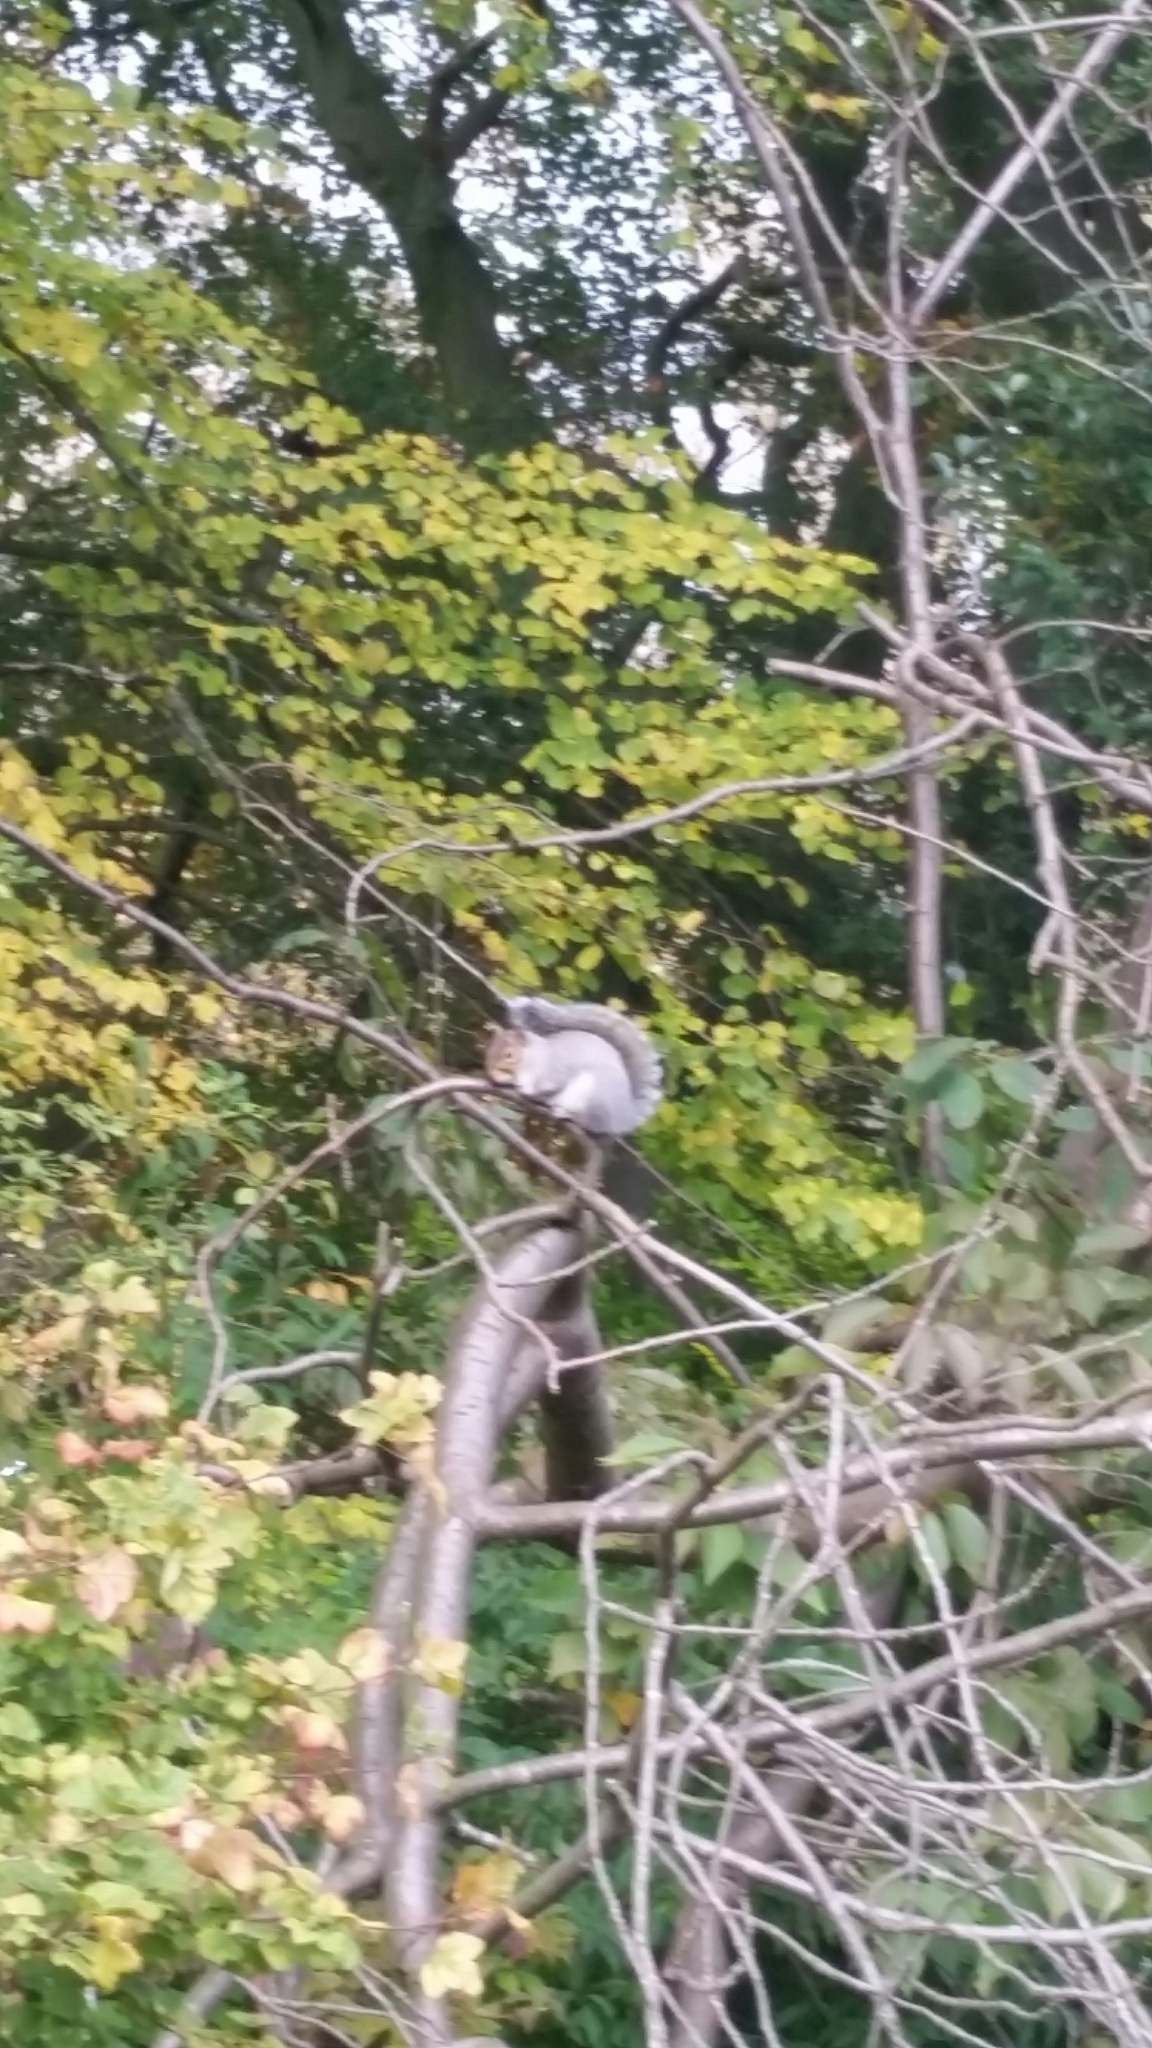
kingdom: Animalia
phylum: Chordata
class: Mammalia
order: Rodentia
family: Sciuridae
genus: Sciurus
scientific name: Sciurus carolinensis
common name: Eastern gray squirrel
